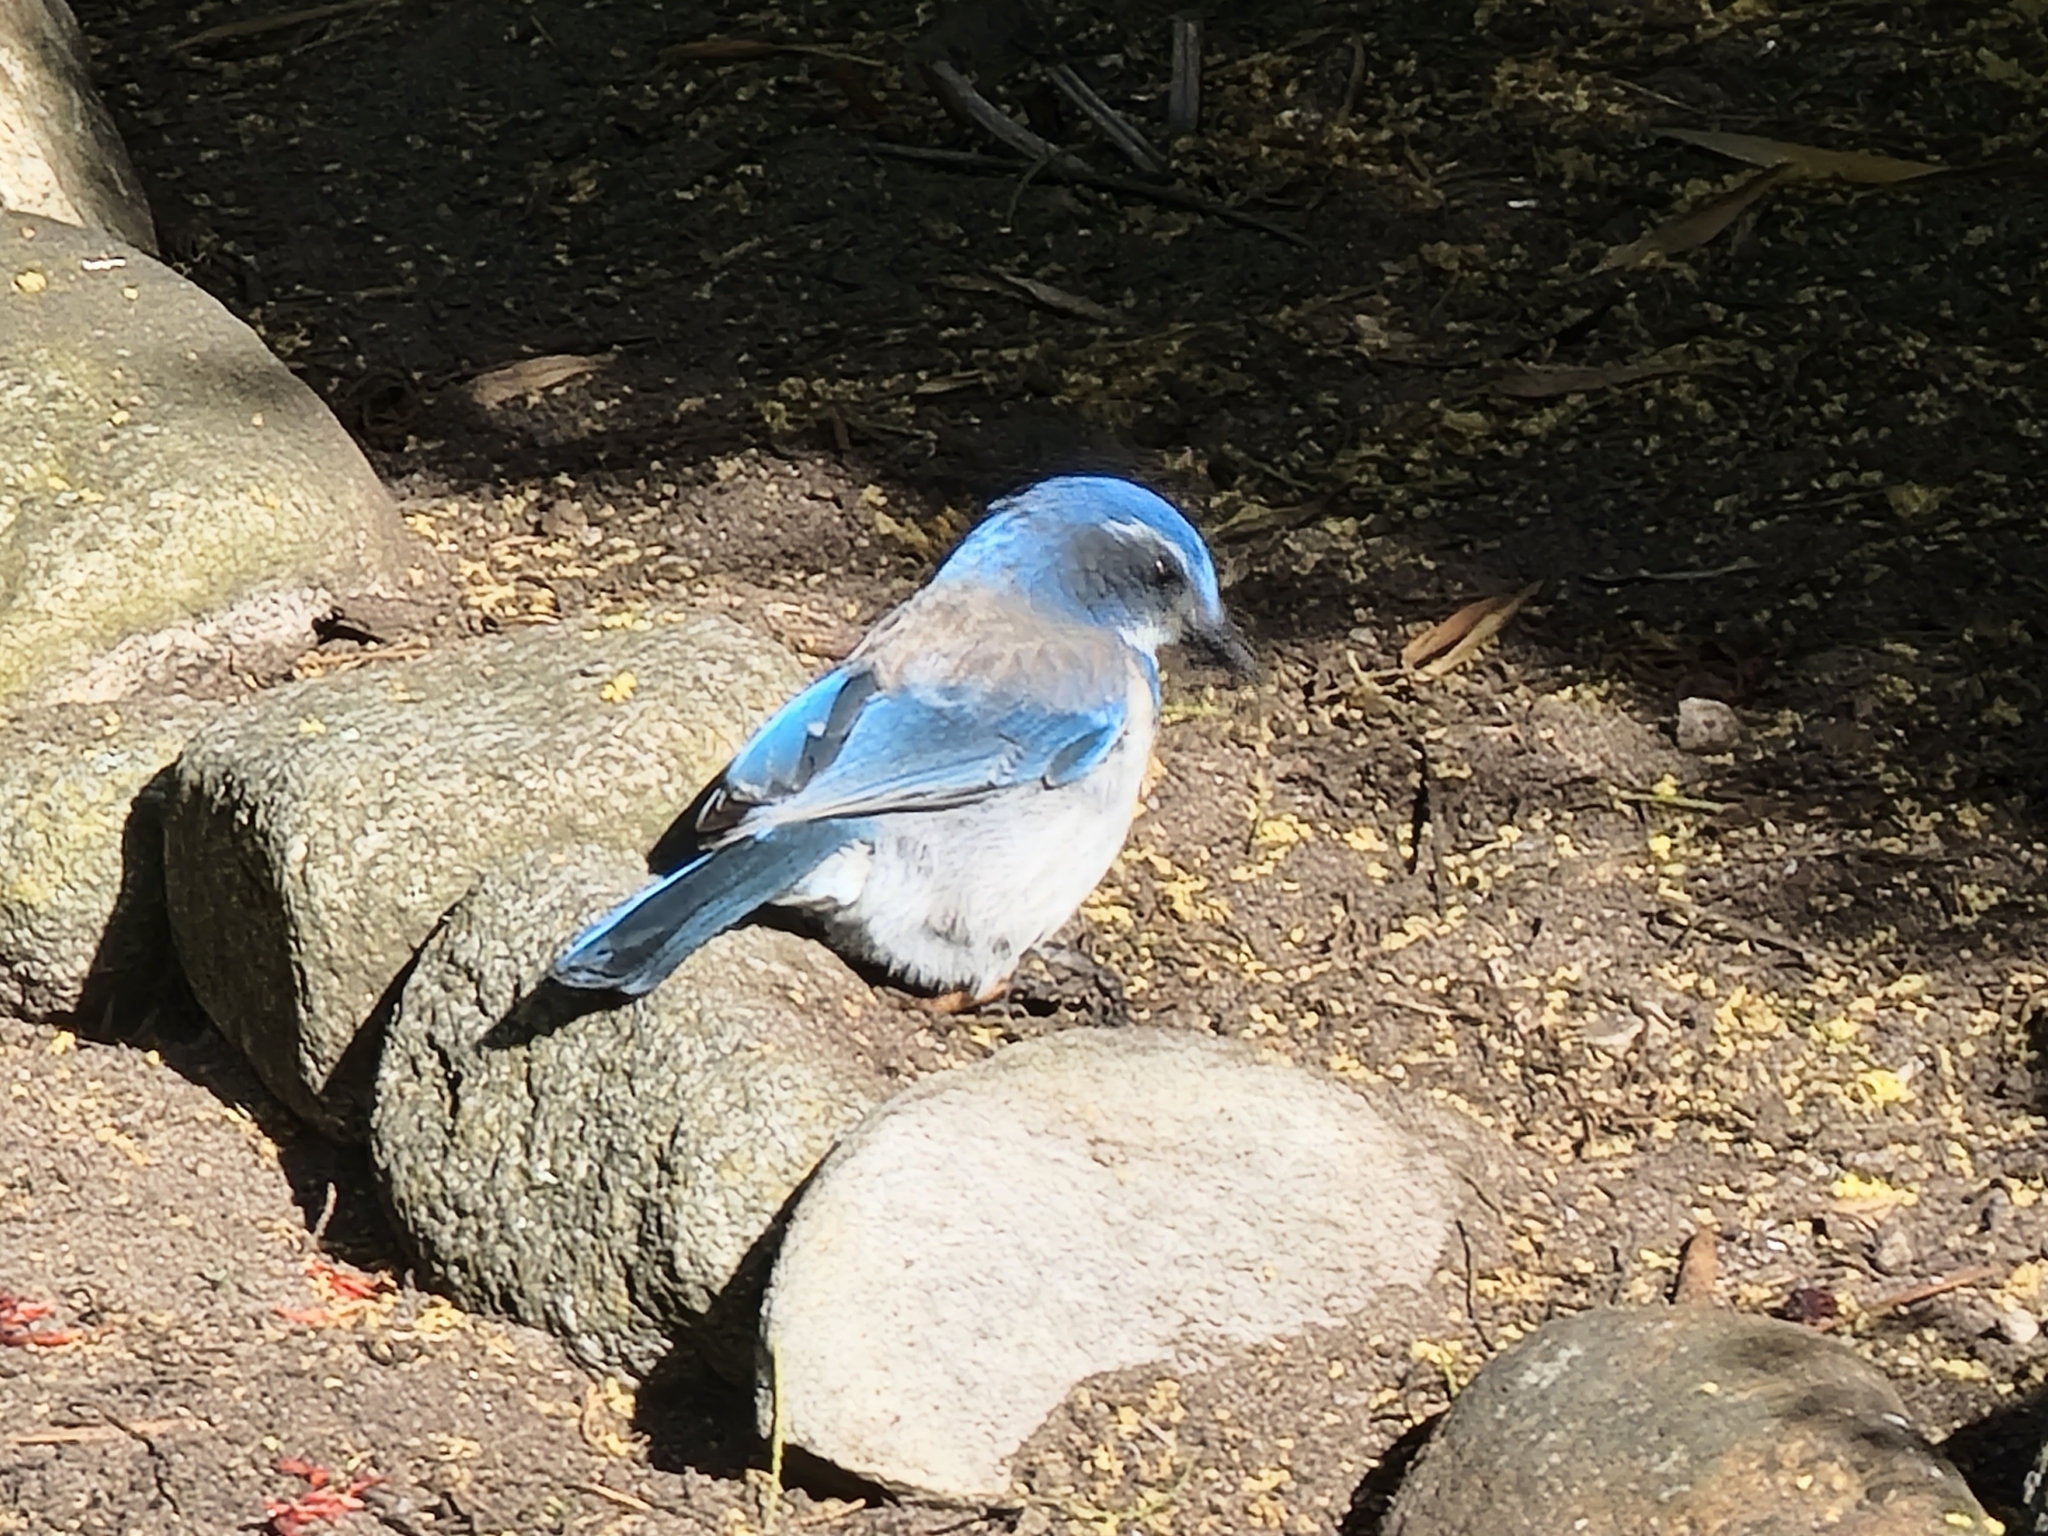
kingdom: Animalia
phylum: Chordata
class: Aves
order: Passeriformes
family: Corvidae
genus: Aphelocoma
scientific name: Aphelocoma californica
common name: California scrub-jay
